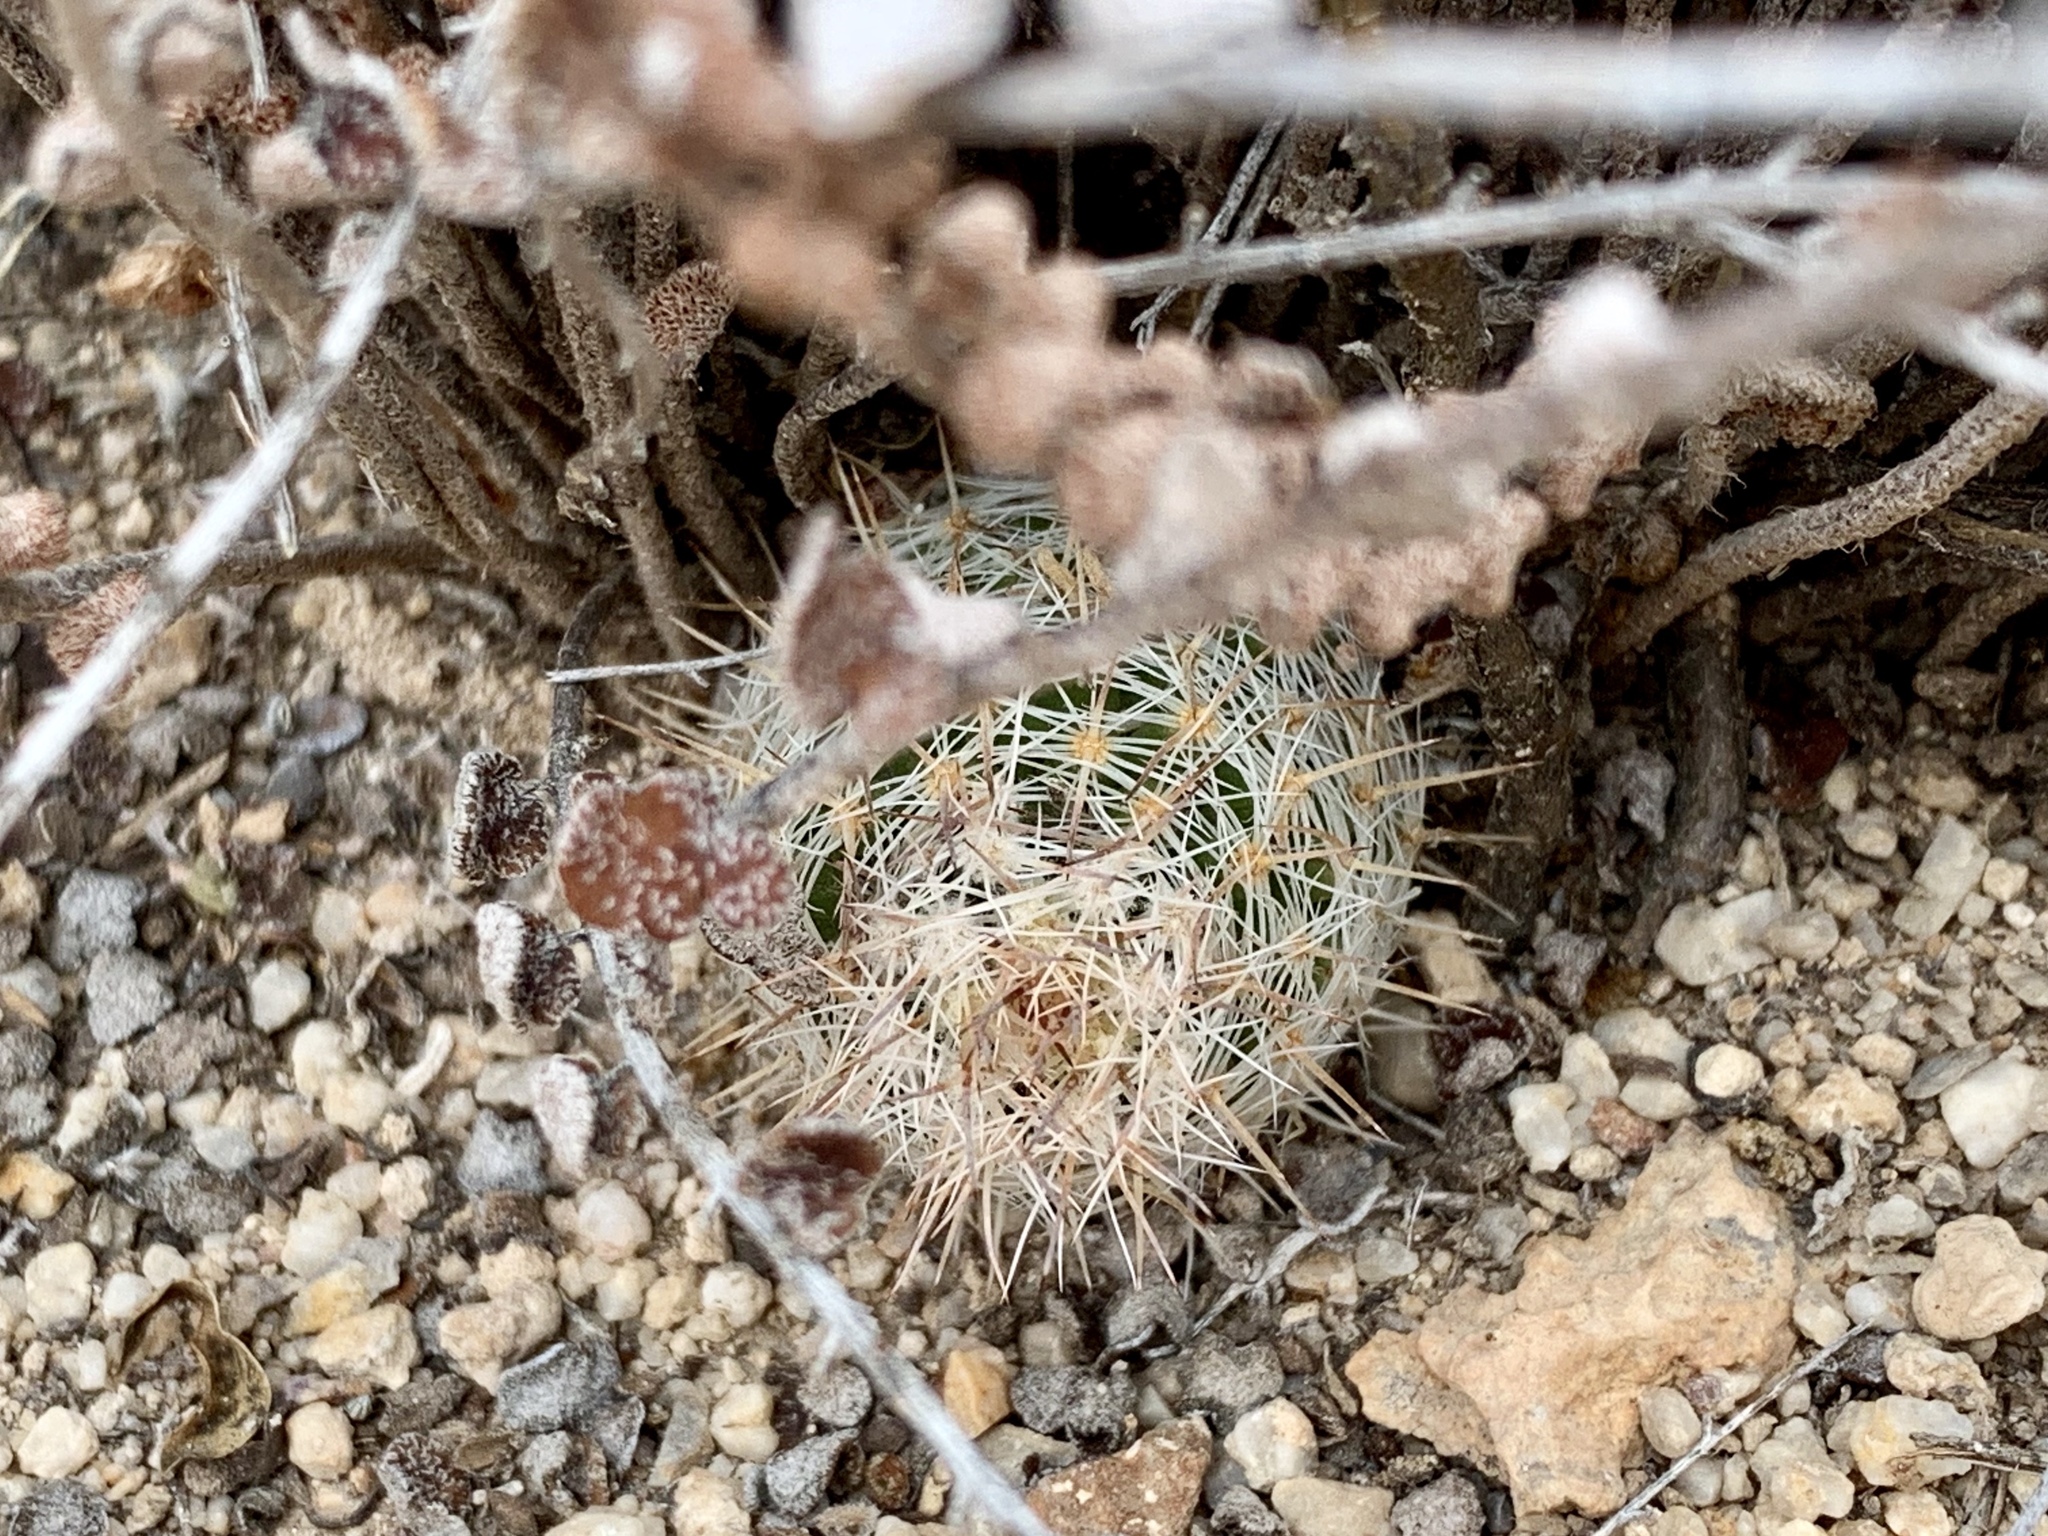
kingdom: Plantae
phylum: Tracheophyta
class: Magnoliopsida
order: Caryophyllales
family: Cactaceae
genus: Pelecyphora
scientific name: Pelecyphora tuberculosa
